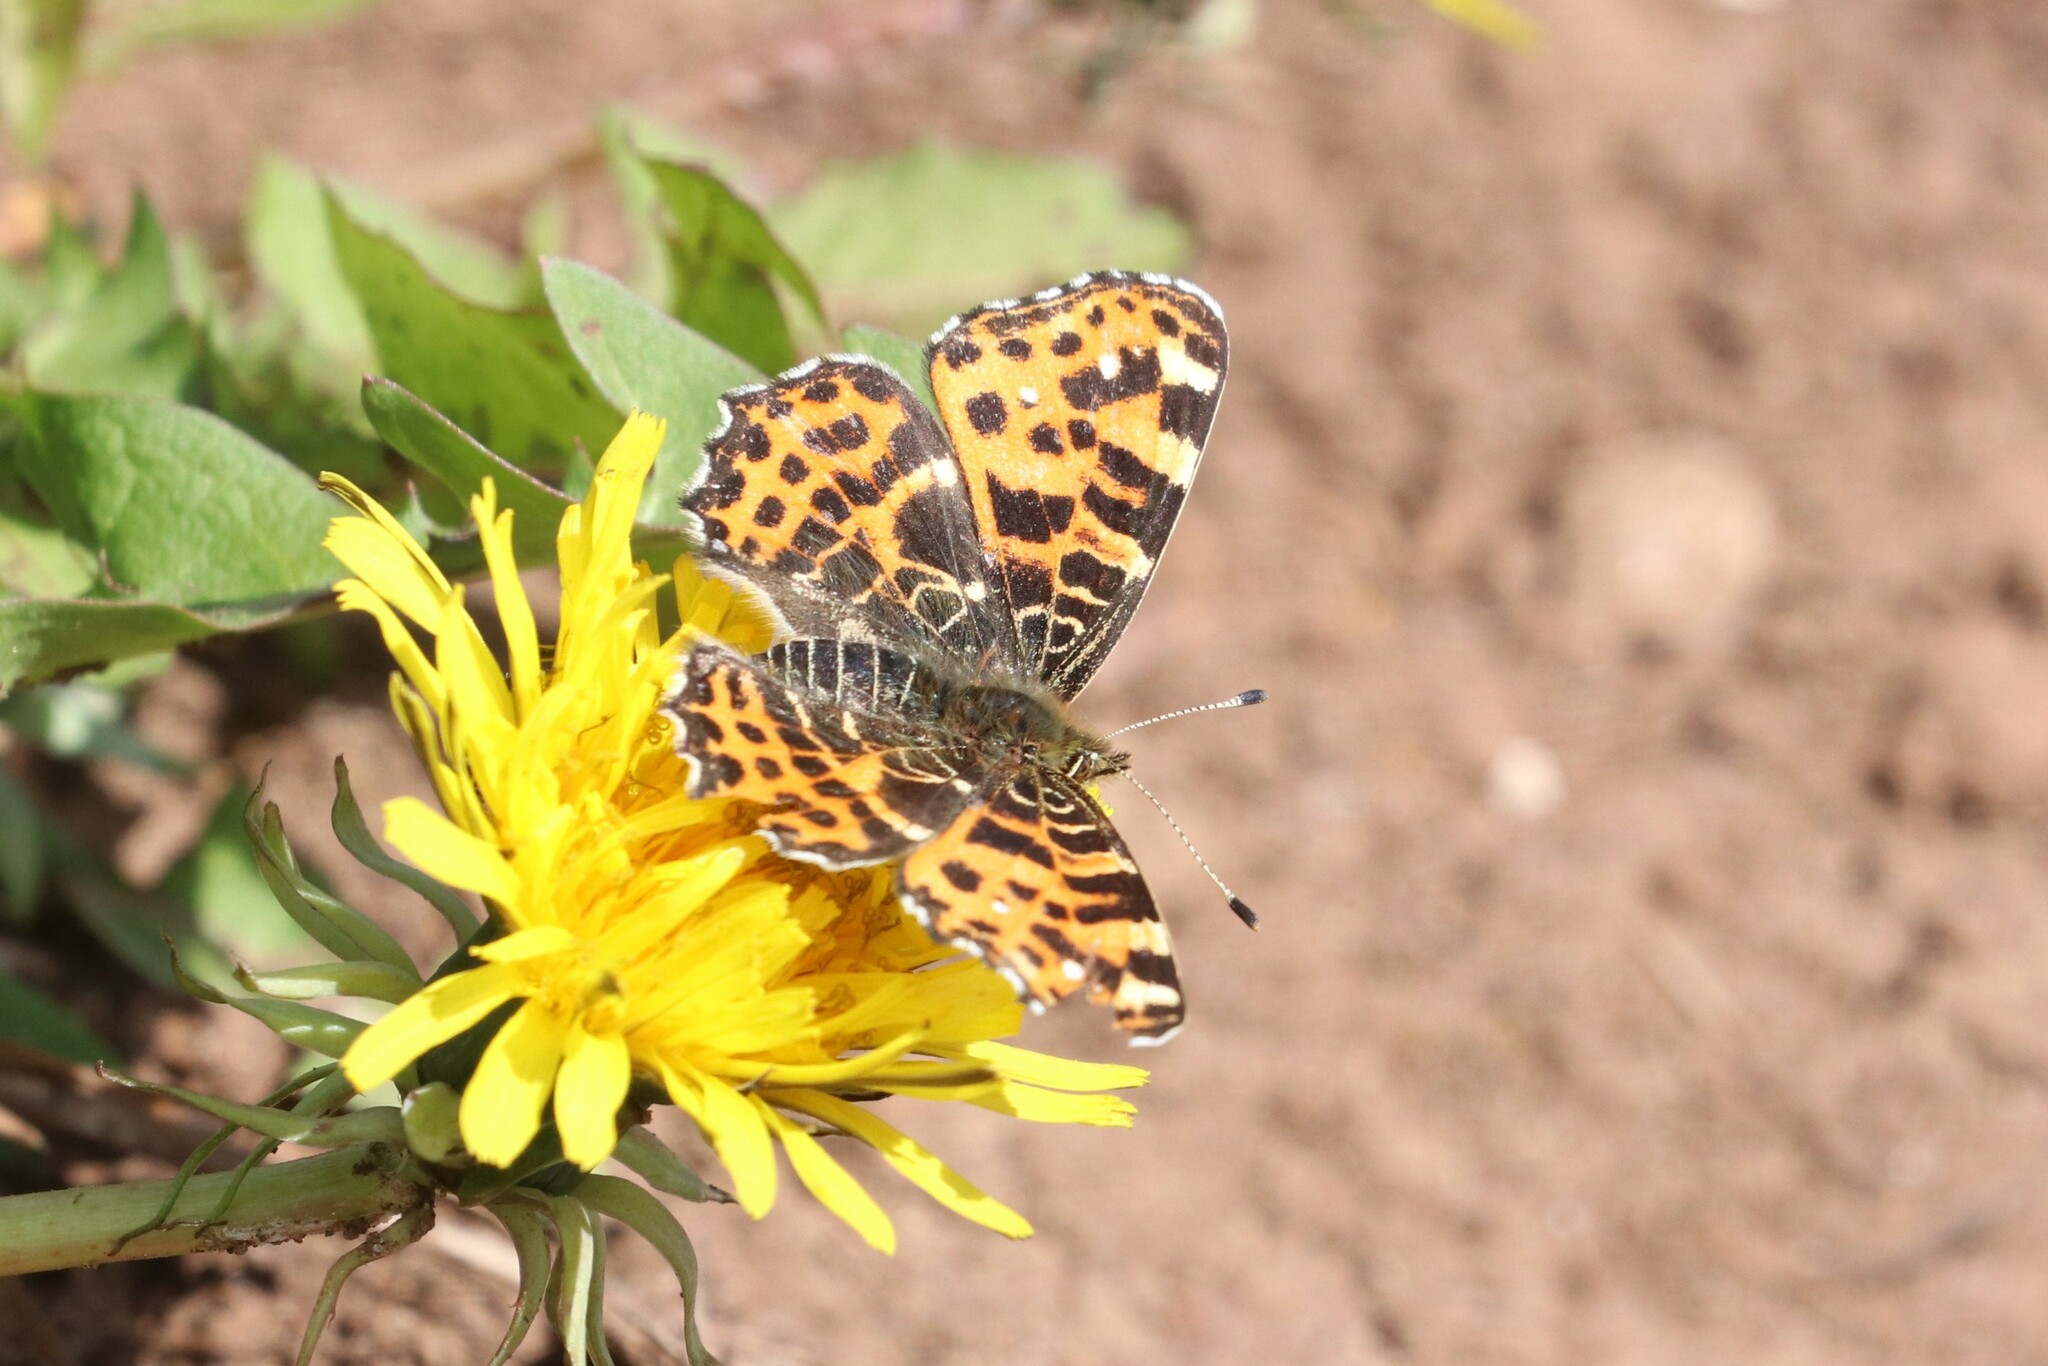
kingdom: Animalia
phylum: Arthropoda
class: Insecta
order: Lepidoptera
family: Nymphalidae
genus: Araschnia
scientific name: Araschnia levana
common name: Map butterfly
